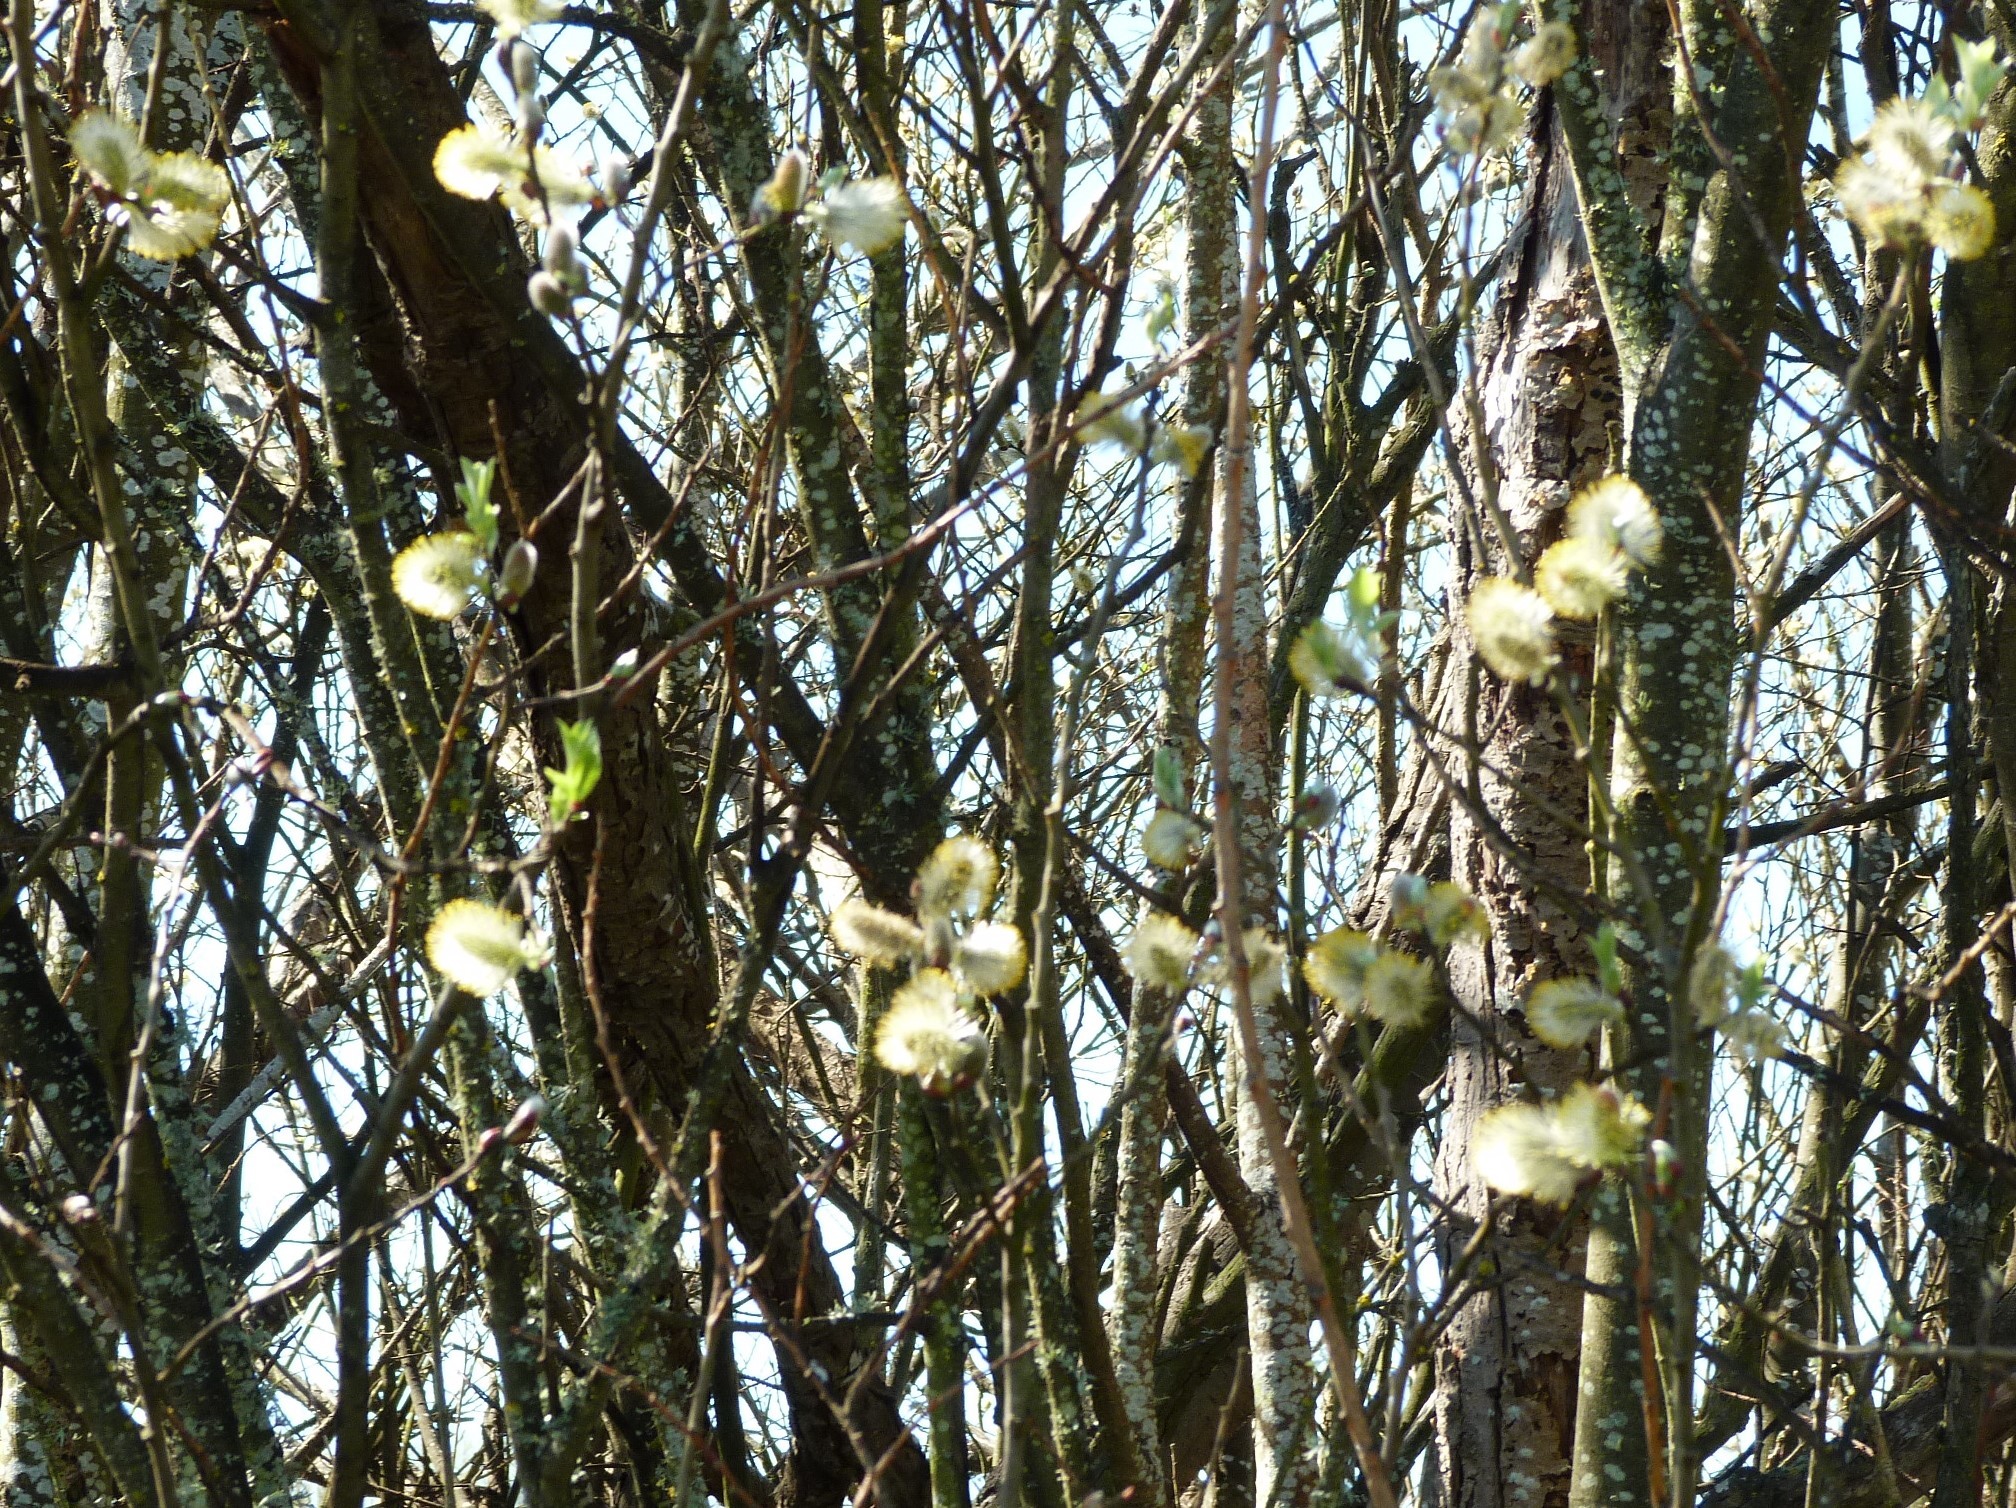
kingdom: Plantae
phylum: Tracheophyta
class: Magnoliopsida
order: Malpighiales
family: Salicaceae
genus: Salix
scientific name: Salix cinerea
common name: Common sallow
